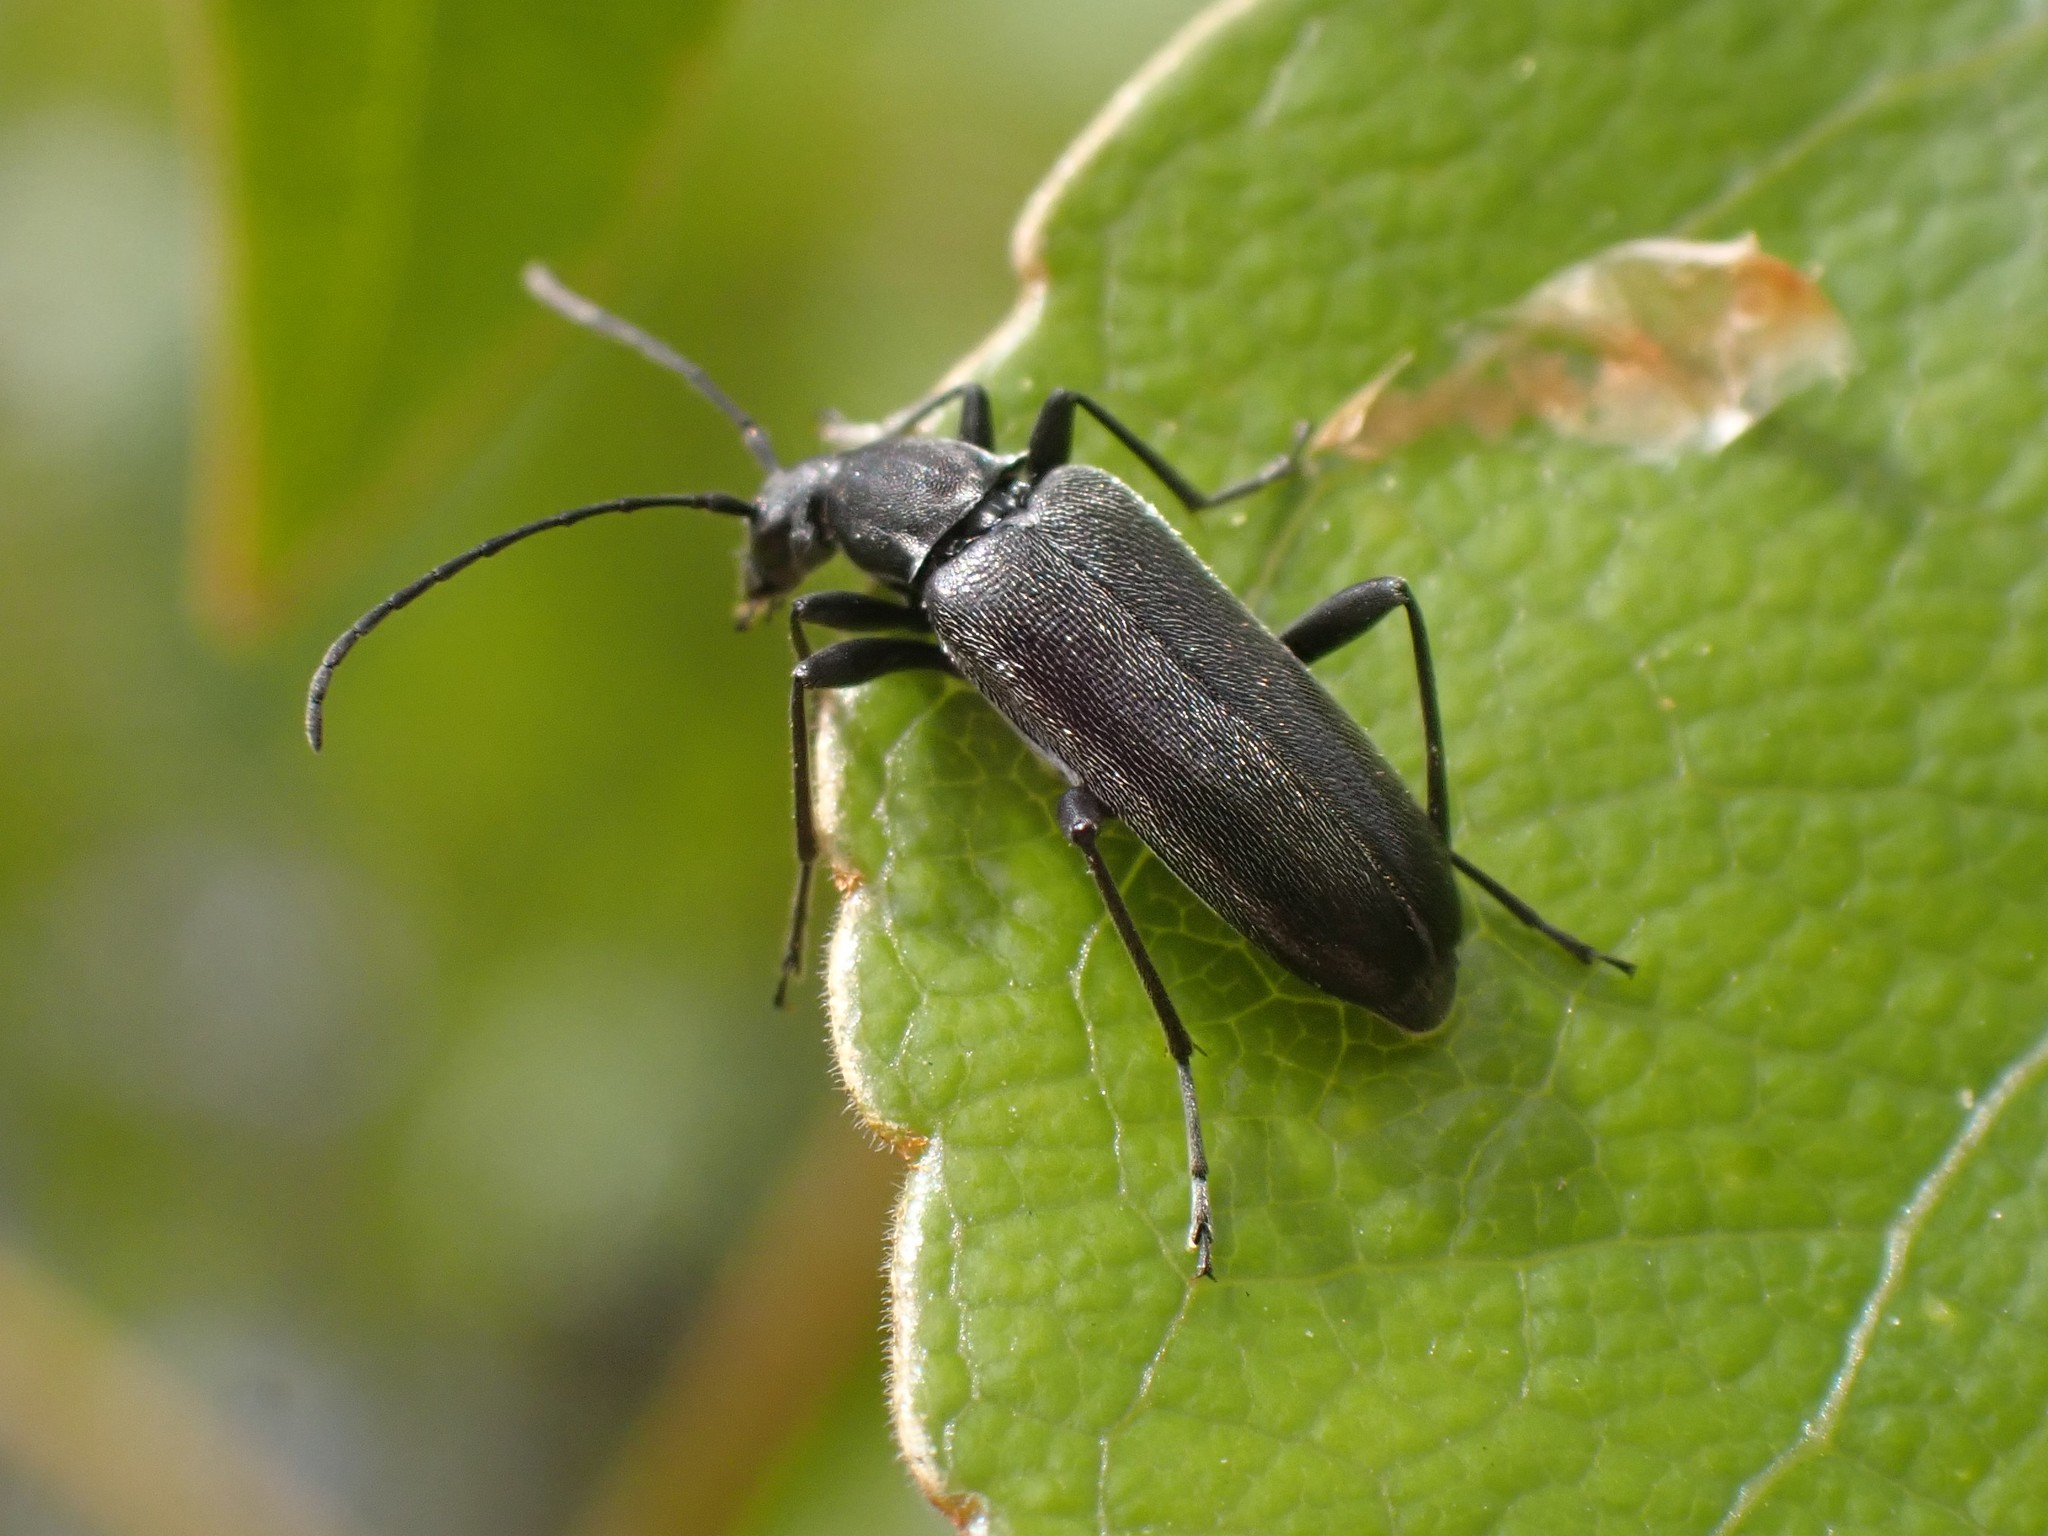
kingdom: Animalia
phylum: Arthropoda
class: Insecta
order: Coleoptera
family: Cerambycidae
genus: Grammoptera
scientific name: Grammoptera subargentata
